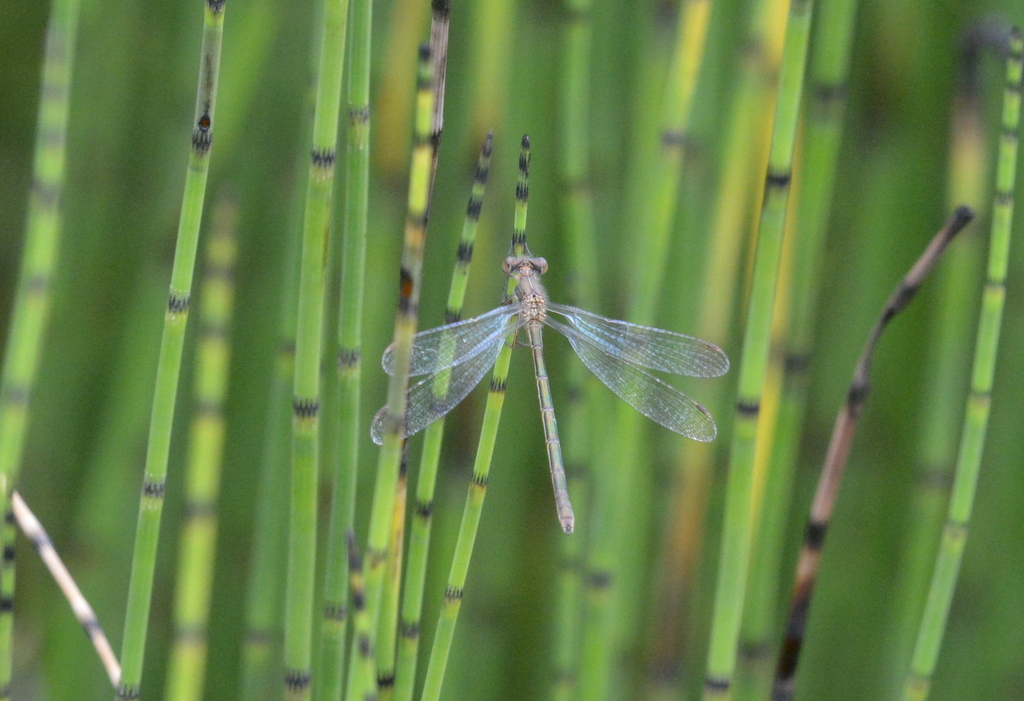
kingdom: Animalia
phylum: Arthropoda
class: Insecta
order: Odonata
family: Lestidae
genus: Lestes
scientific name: Lestes sponsa
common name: Common spreadwing
